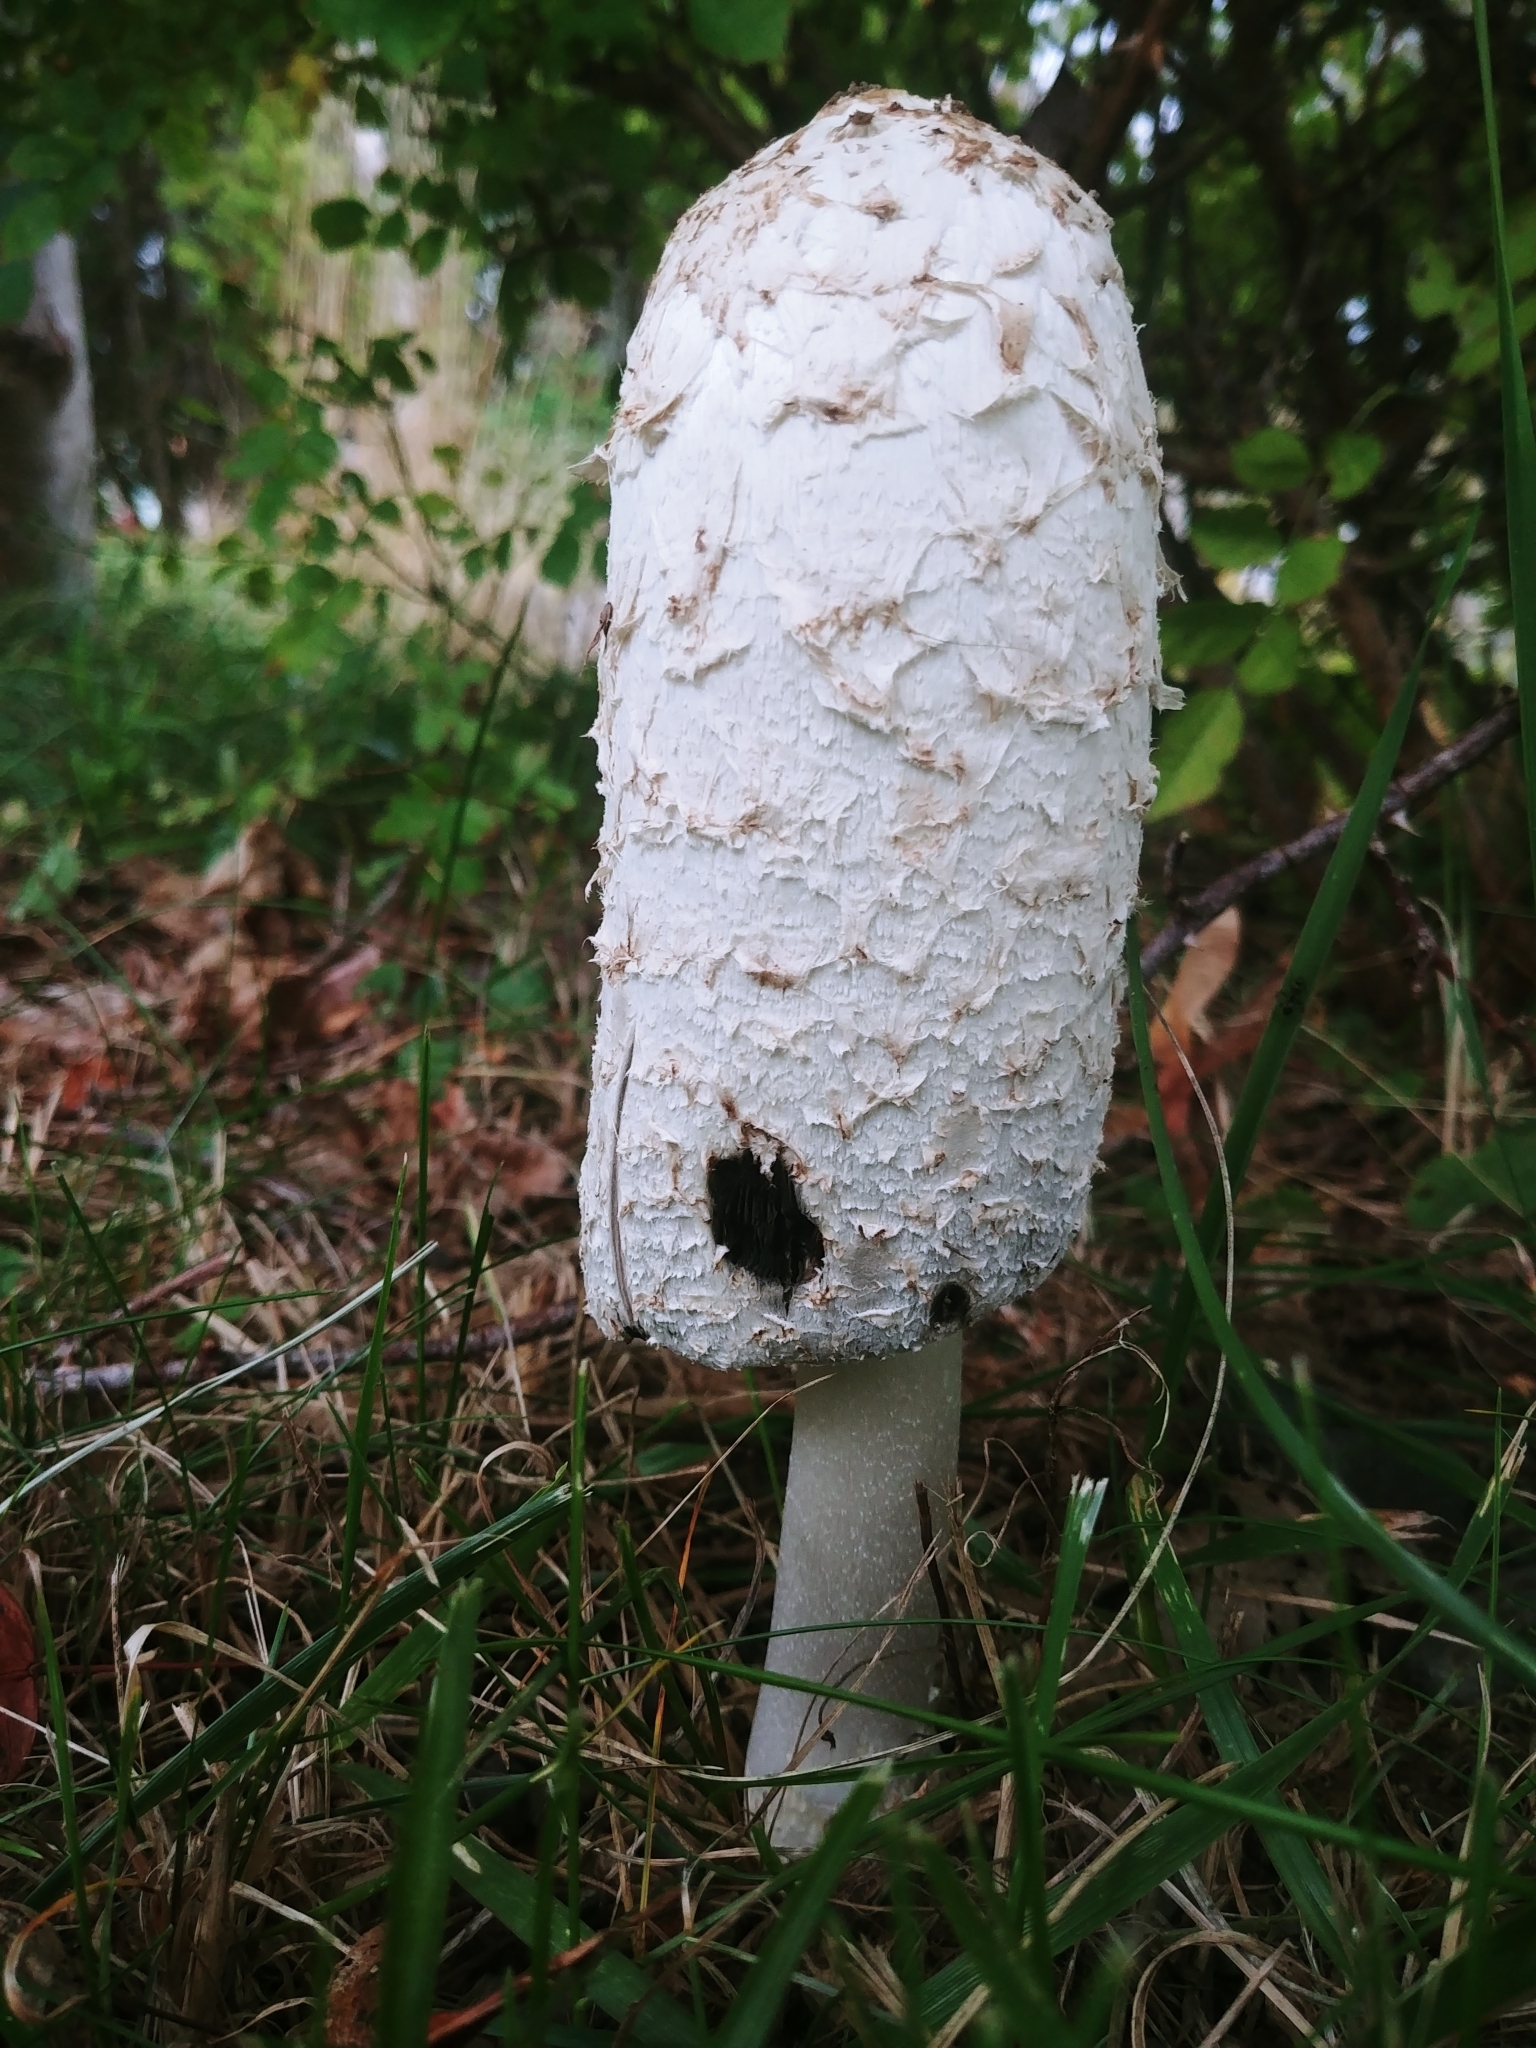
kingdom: Fungi
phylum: Basidiomycota
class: Agaricomycetes
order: Agaricales
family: Agaricaceae
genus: Coprinus
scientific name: Coprinus comatus
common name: Lawyer's wig
